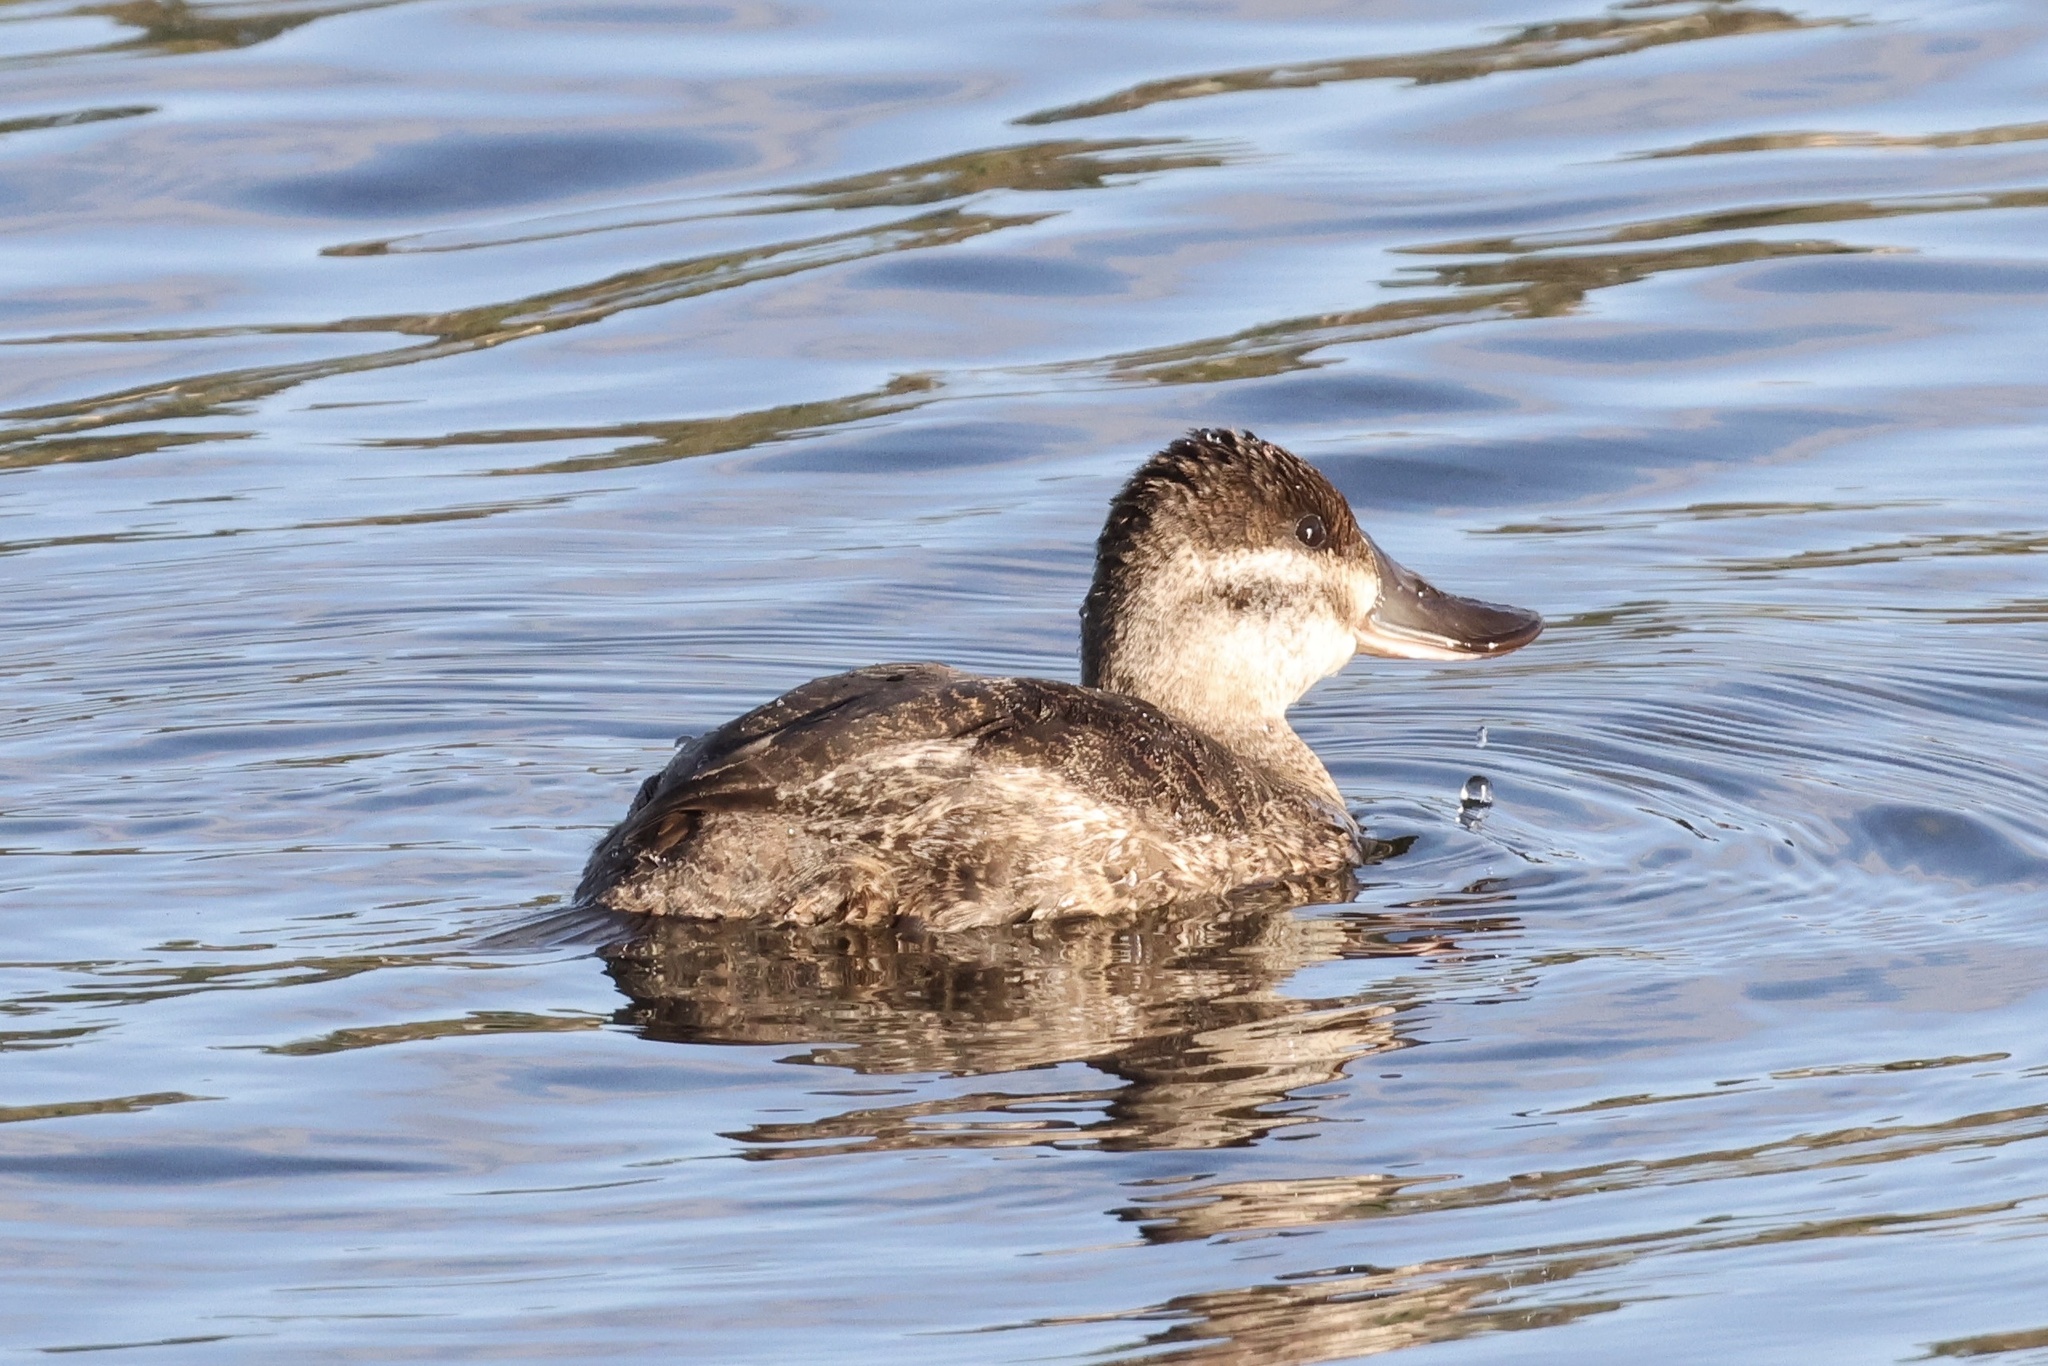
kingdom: Animalia
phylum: Chordata
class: Aves
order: Anseriformes
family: Anatidae
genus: Oxyura
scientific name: Oxyura jamaicensis
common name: Ruddy duck
